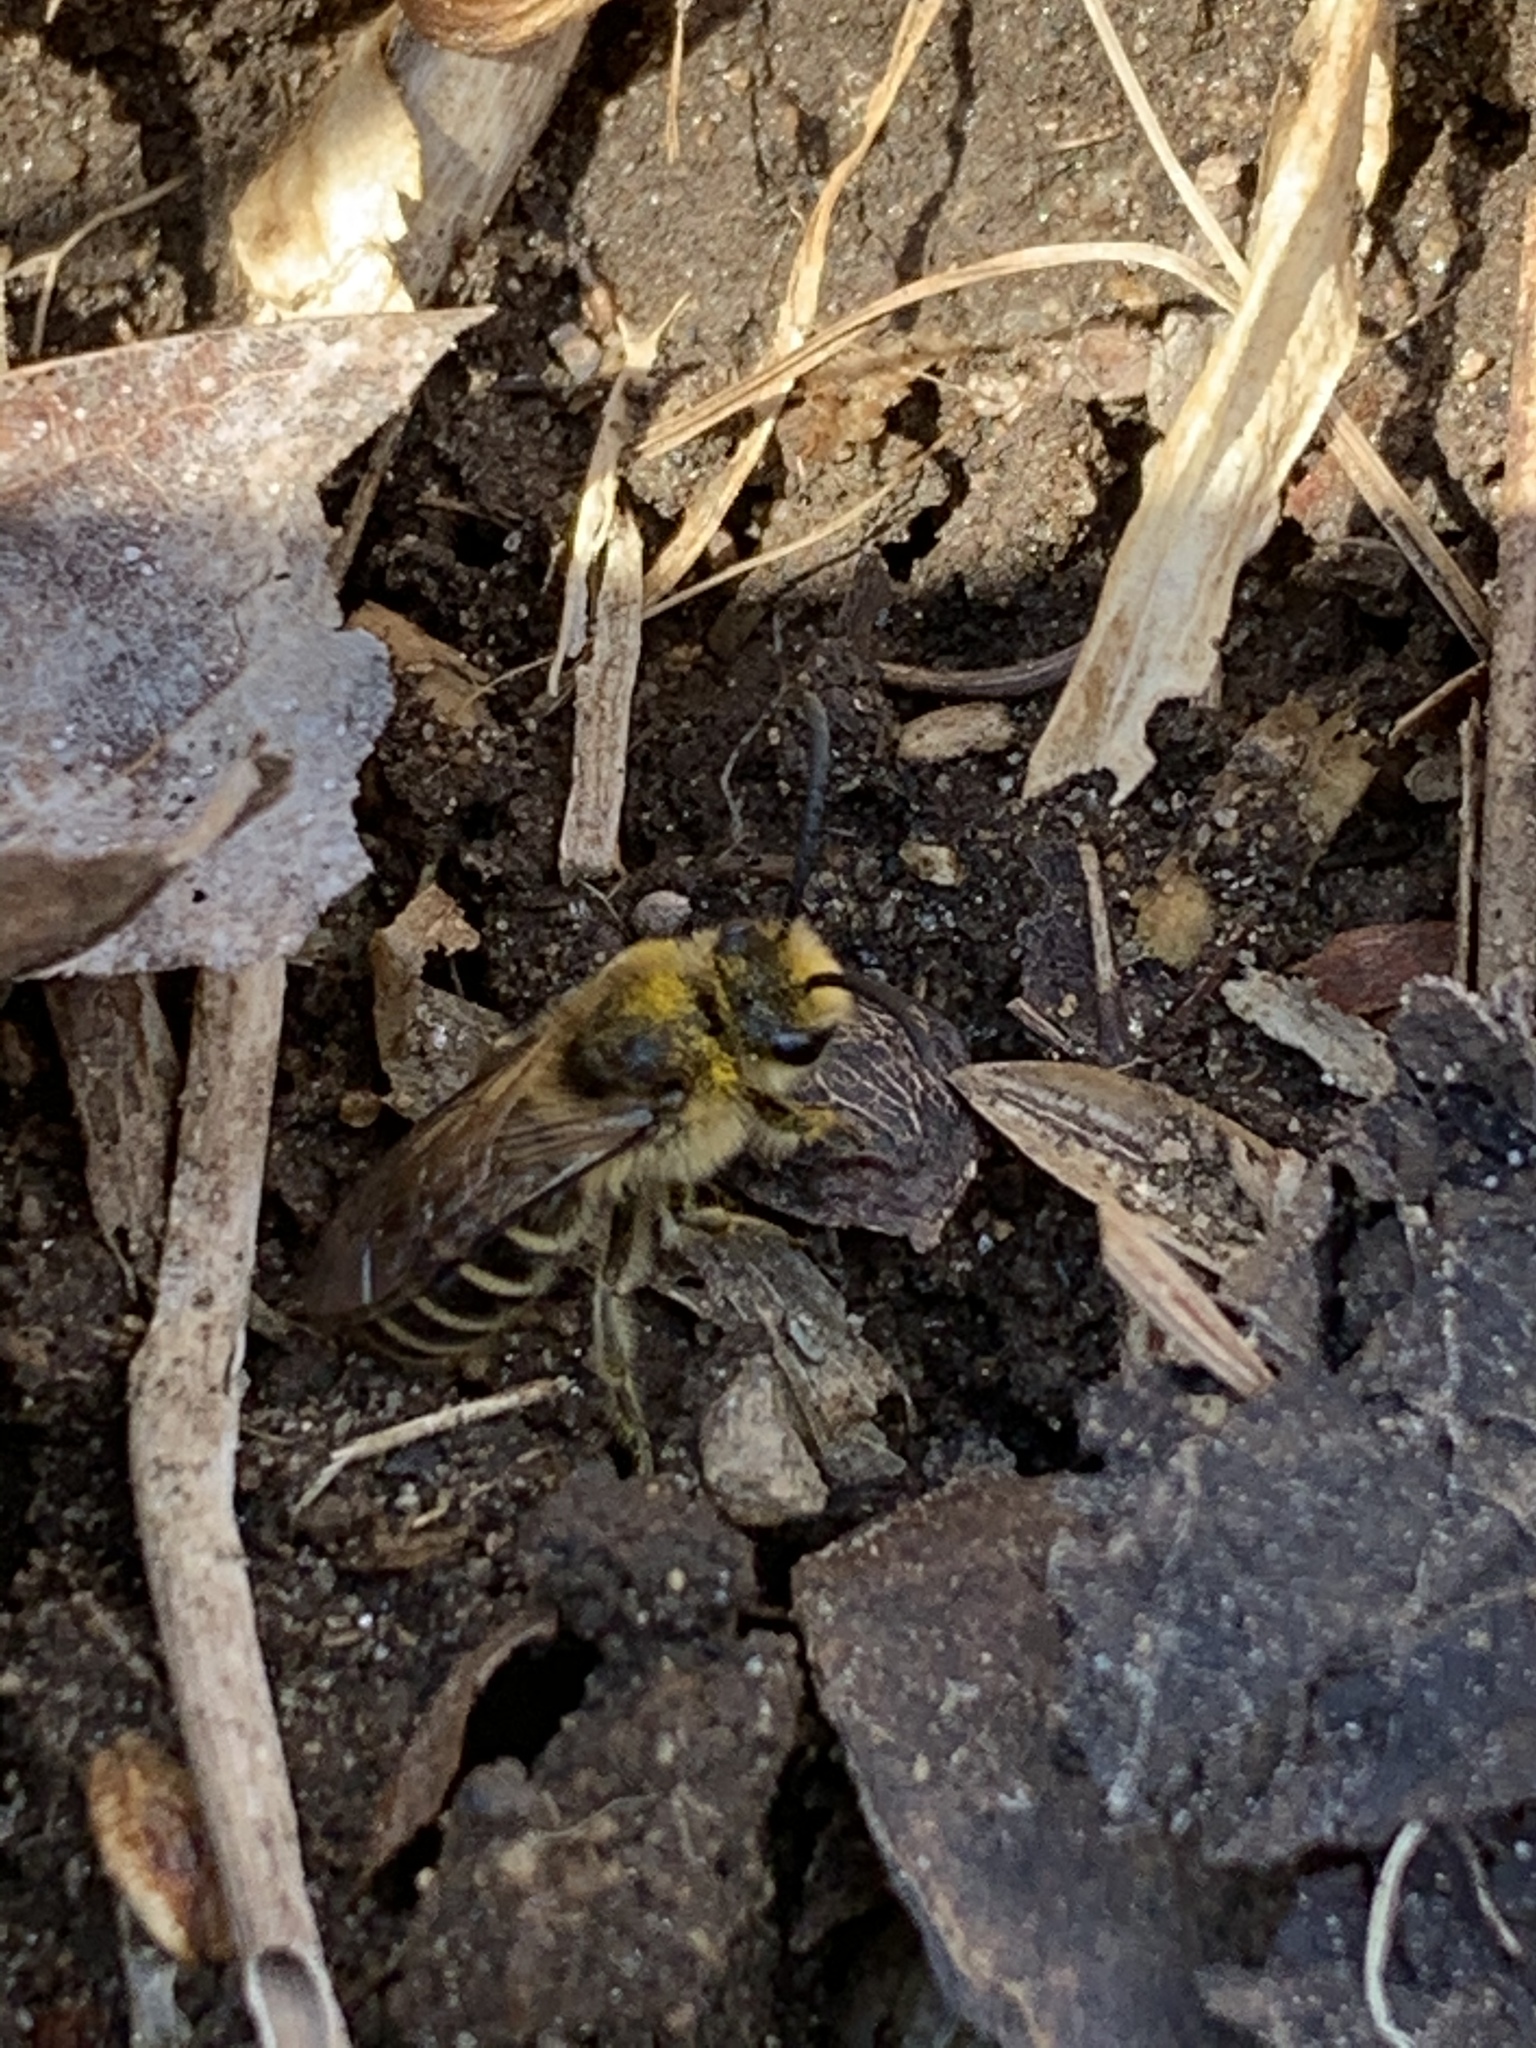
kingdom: Animalia
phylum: Arthropoda
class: Insecta
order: Hymenoptera
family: Colletidae
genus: Colletes
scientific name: Colletes inaequalis
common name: Unequal cellophane bee
